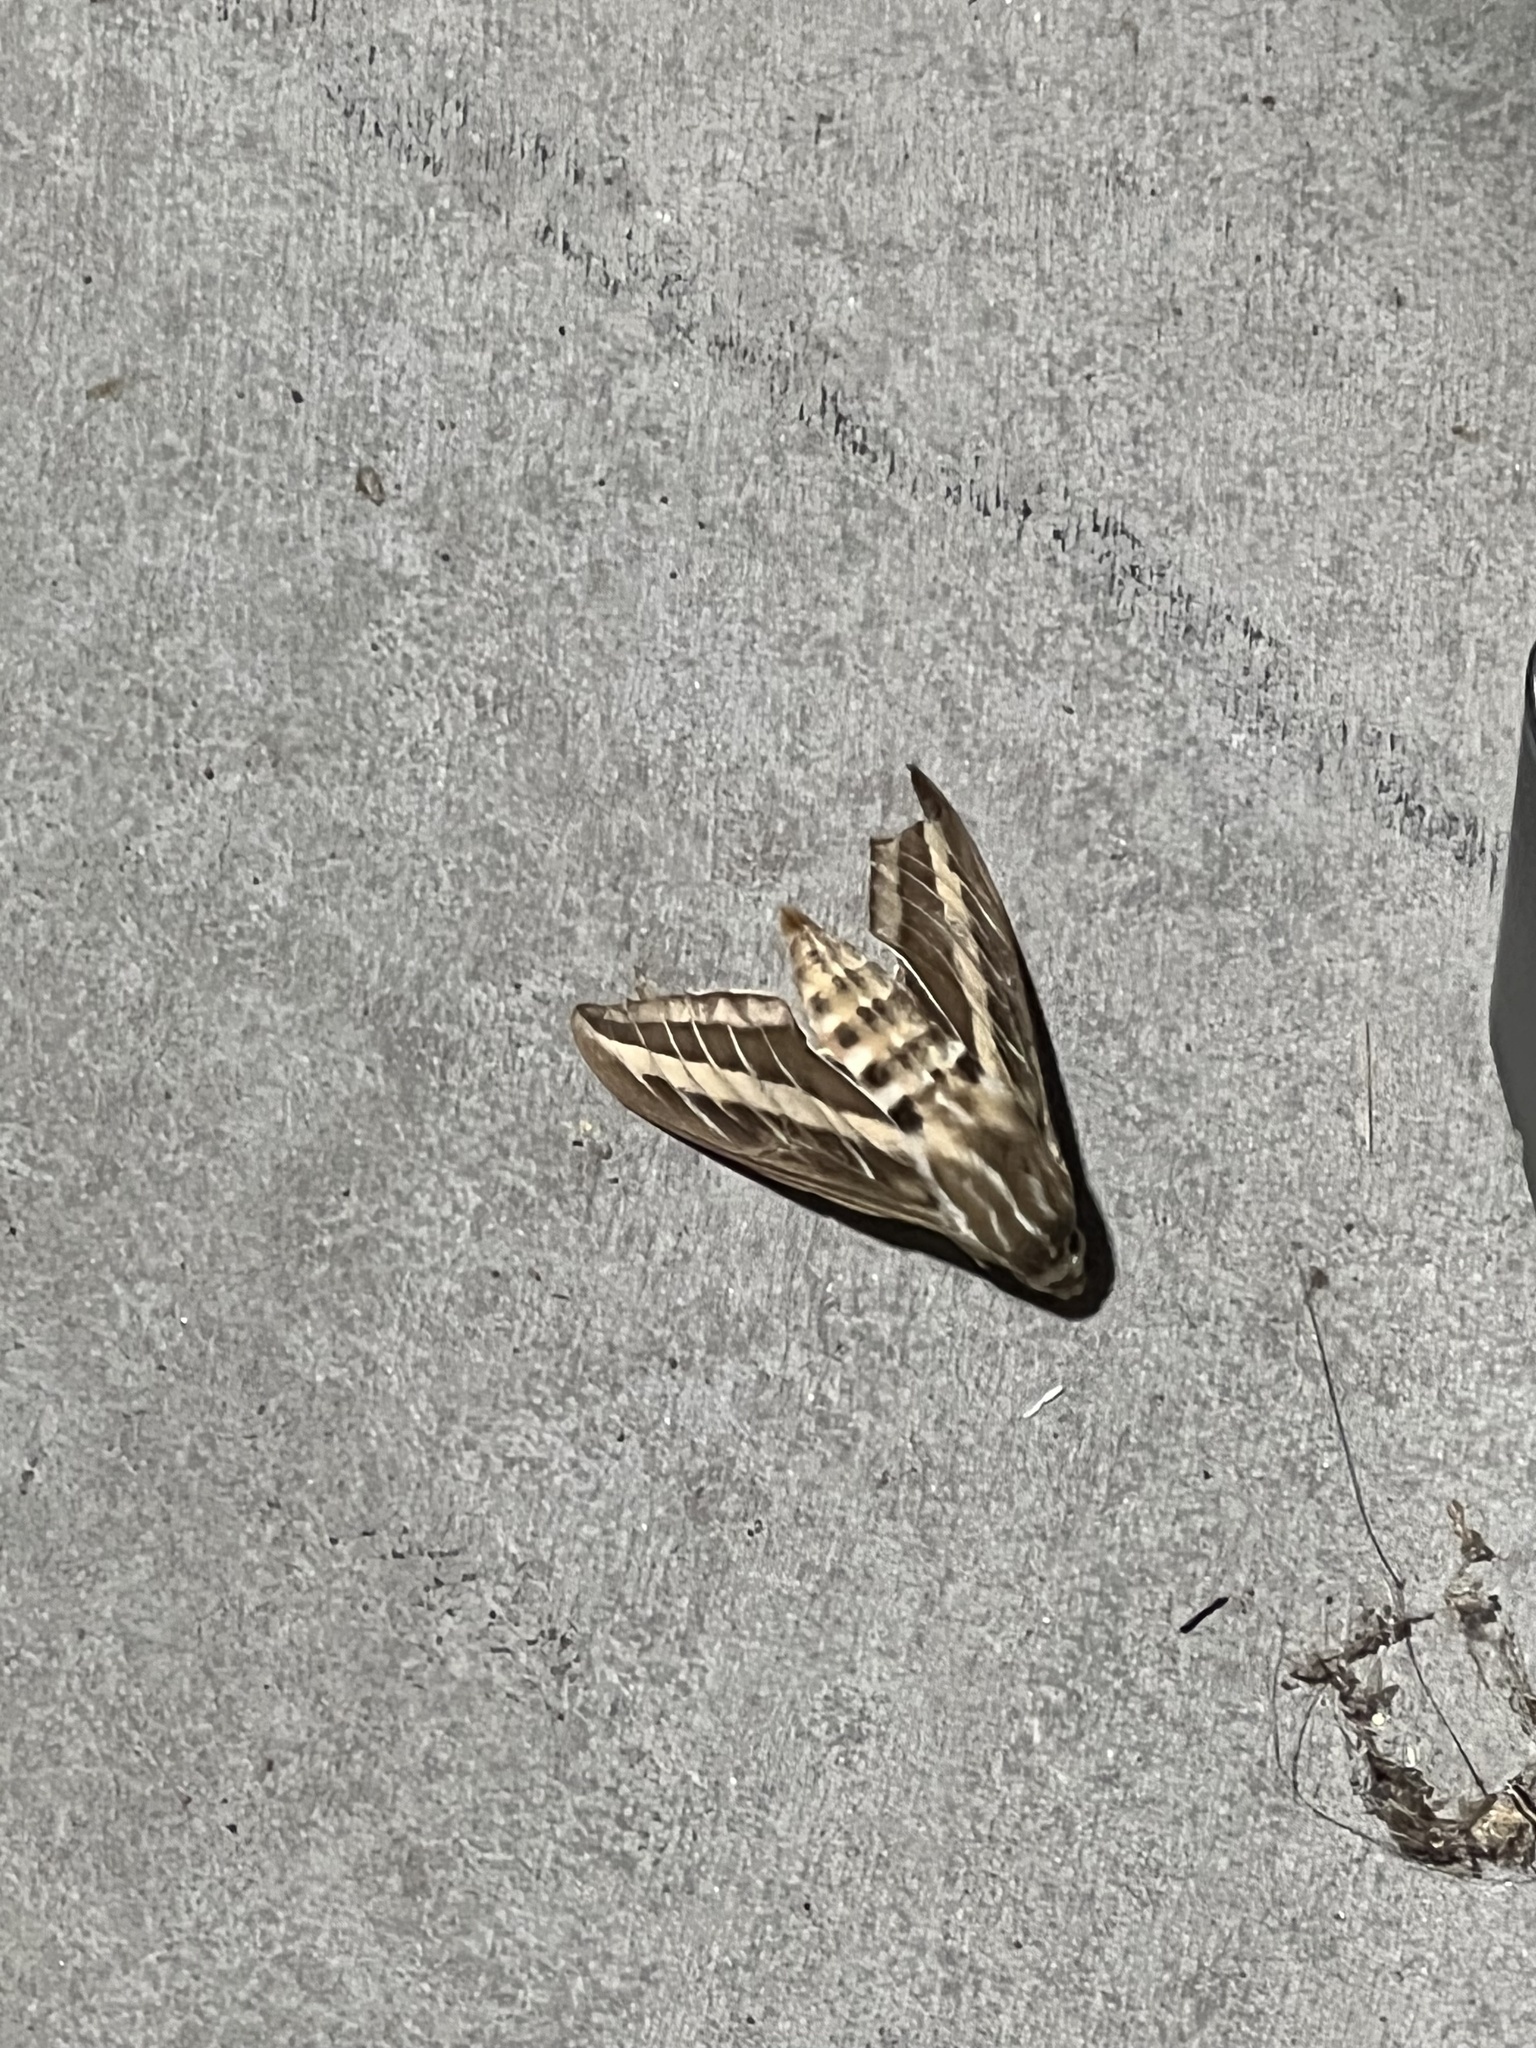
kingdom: Animalia
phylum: Arthropoda
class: Insecta
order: Lepidoptera
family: Sphingidae
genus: Hyles
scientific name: Hyles lineata
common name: White-lined sphinx
